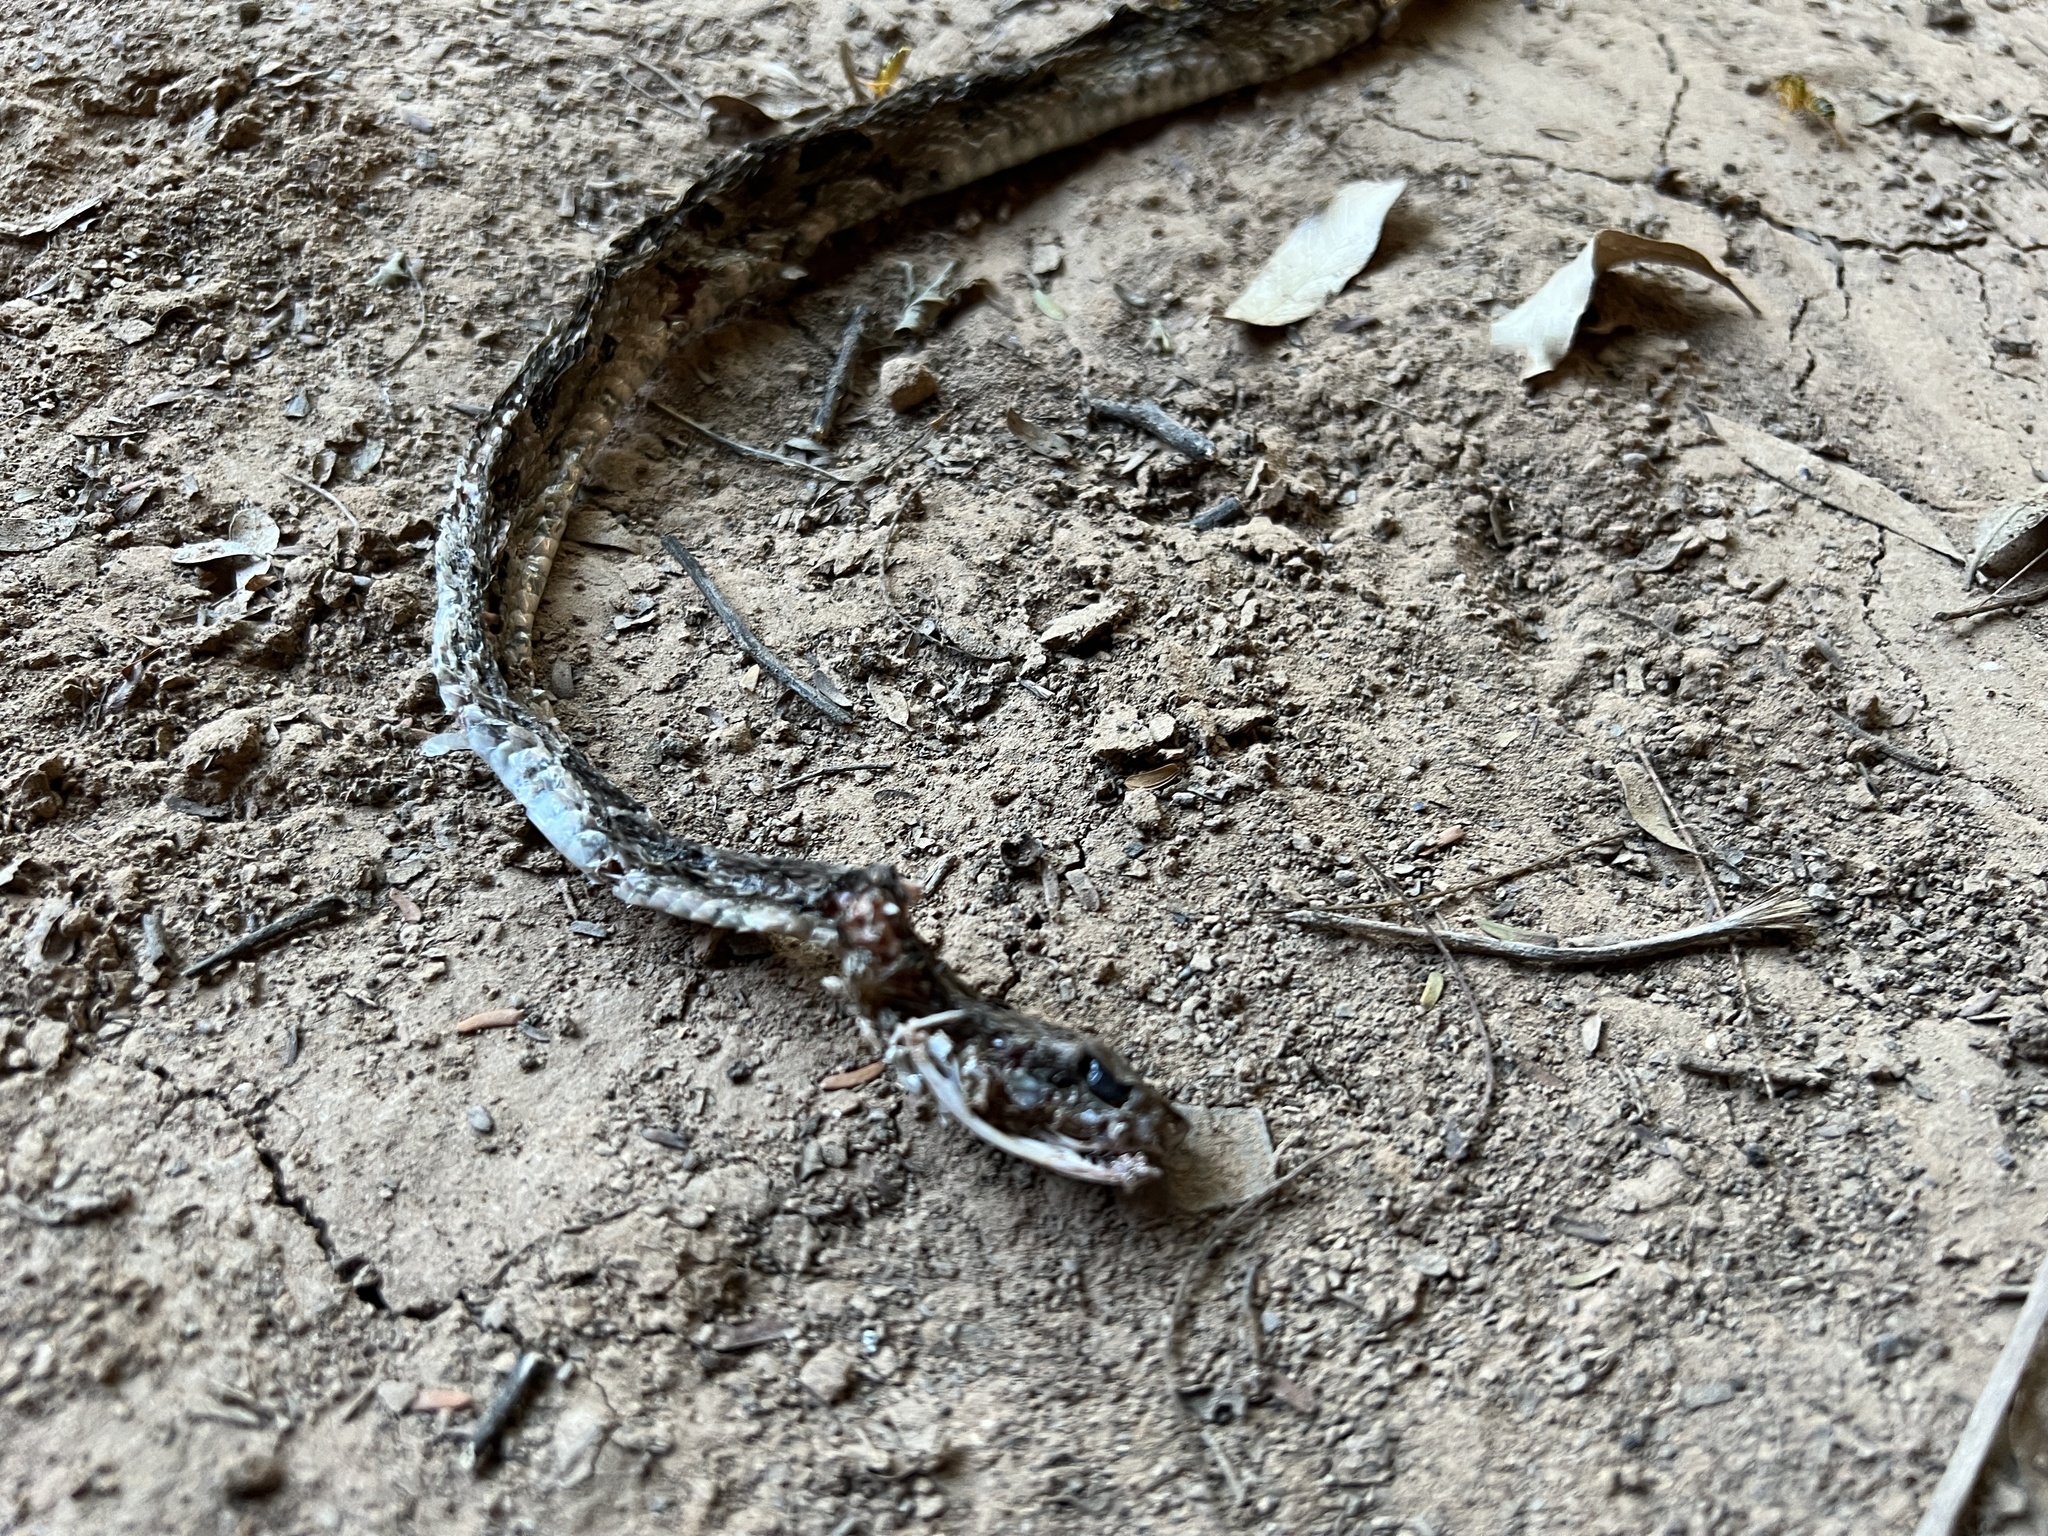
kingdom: Animalia
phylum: Chordata
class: Squamata
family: Viperidae
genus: Bothrops
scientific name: Bothrops diporus
